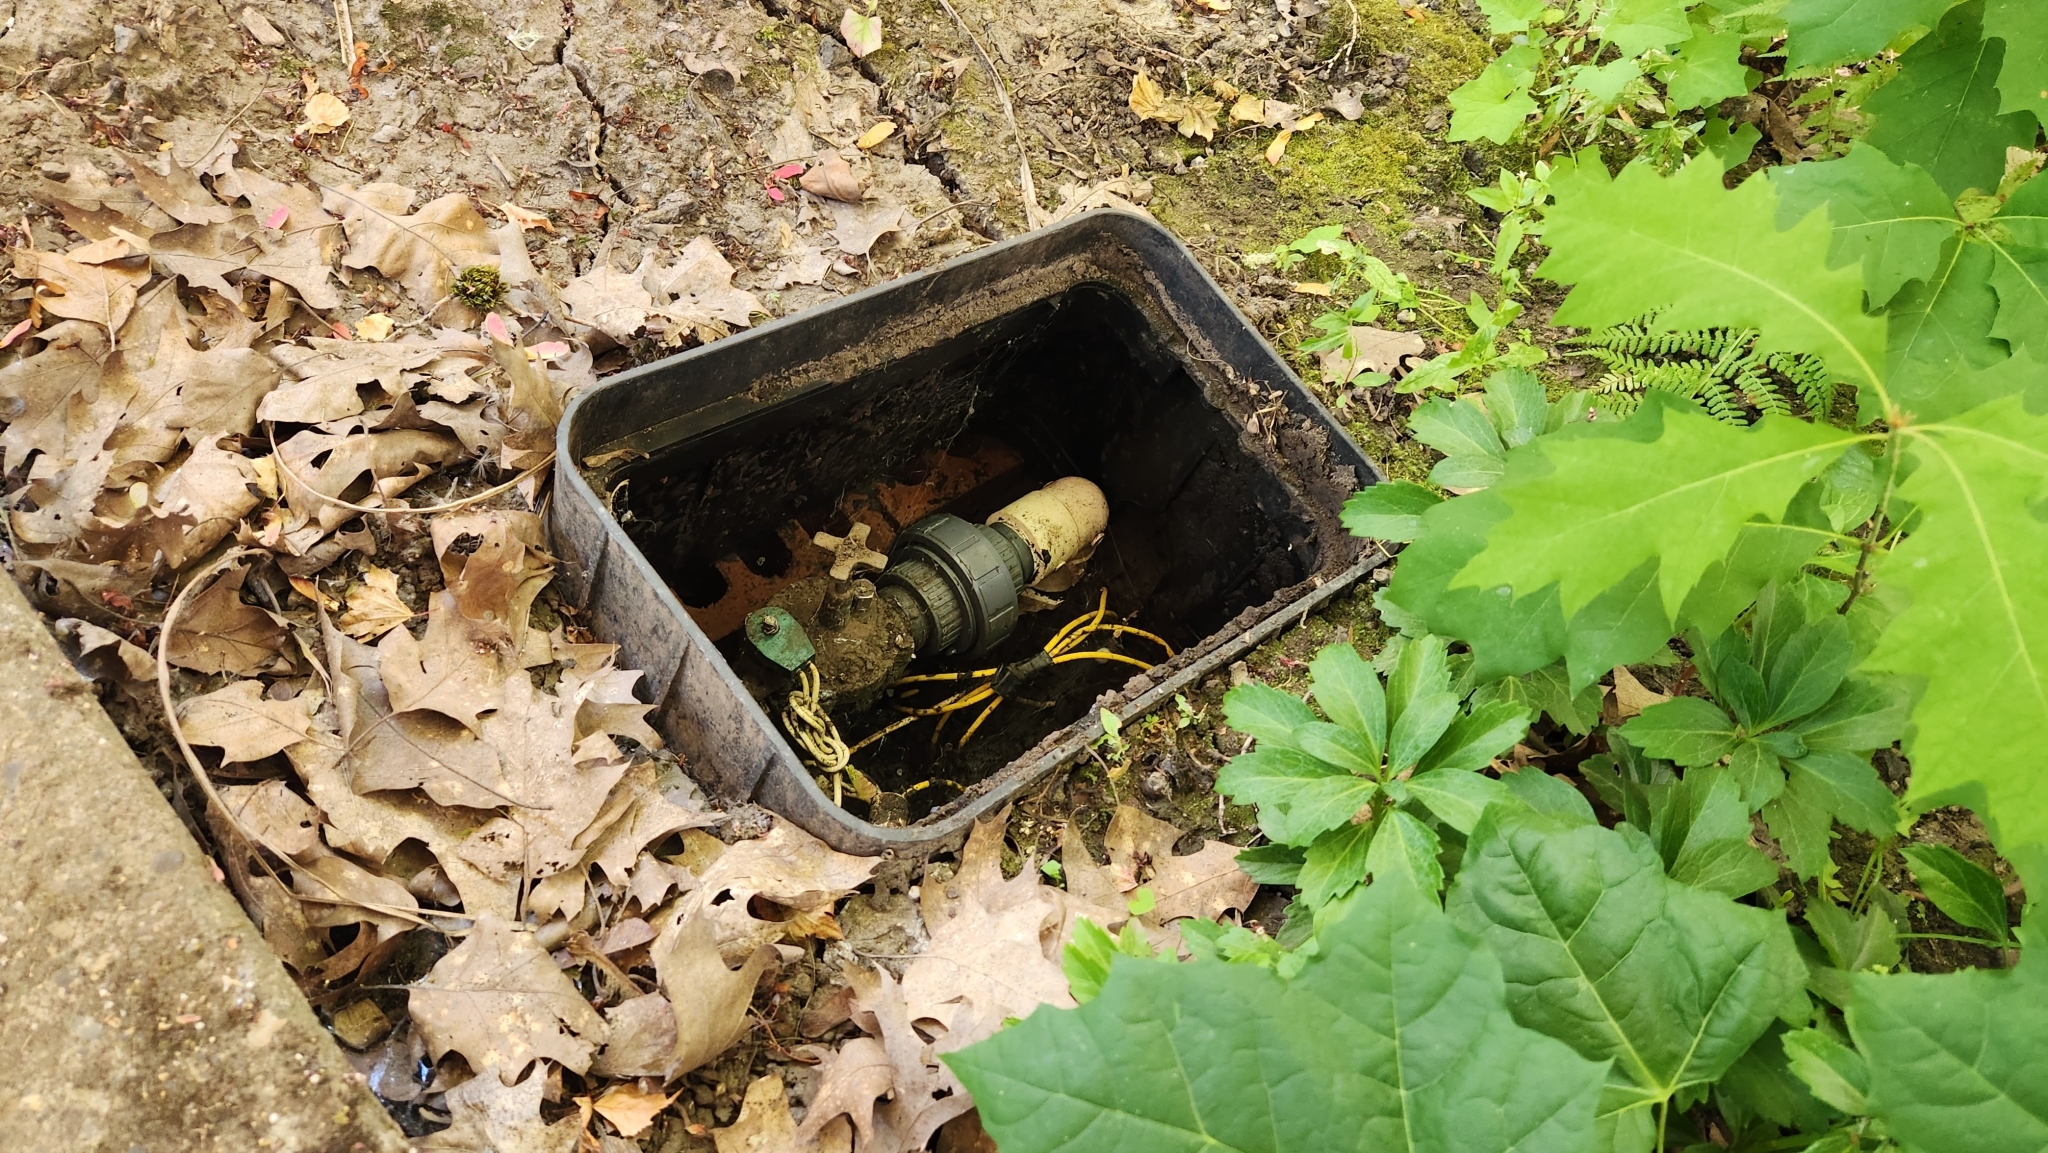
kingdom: Animalia
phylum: Mollusca
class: Gastropoda
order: Stylommatophora
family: Limacidae
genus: Limax
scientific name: Limax maximus
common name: Great grey slug
